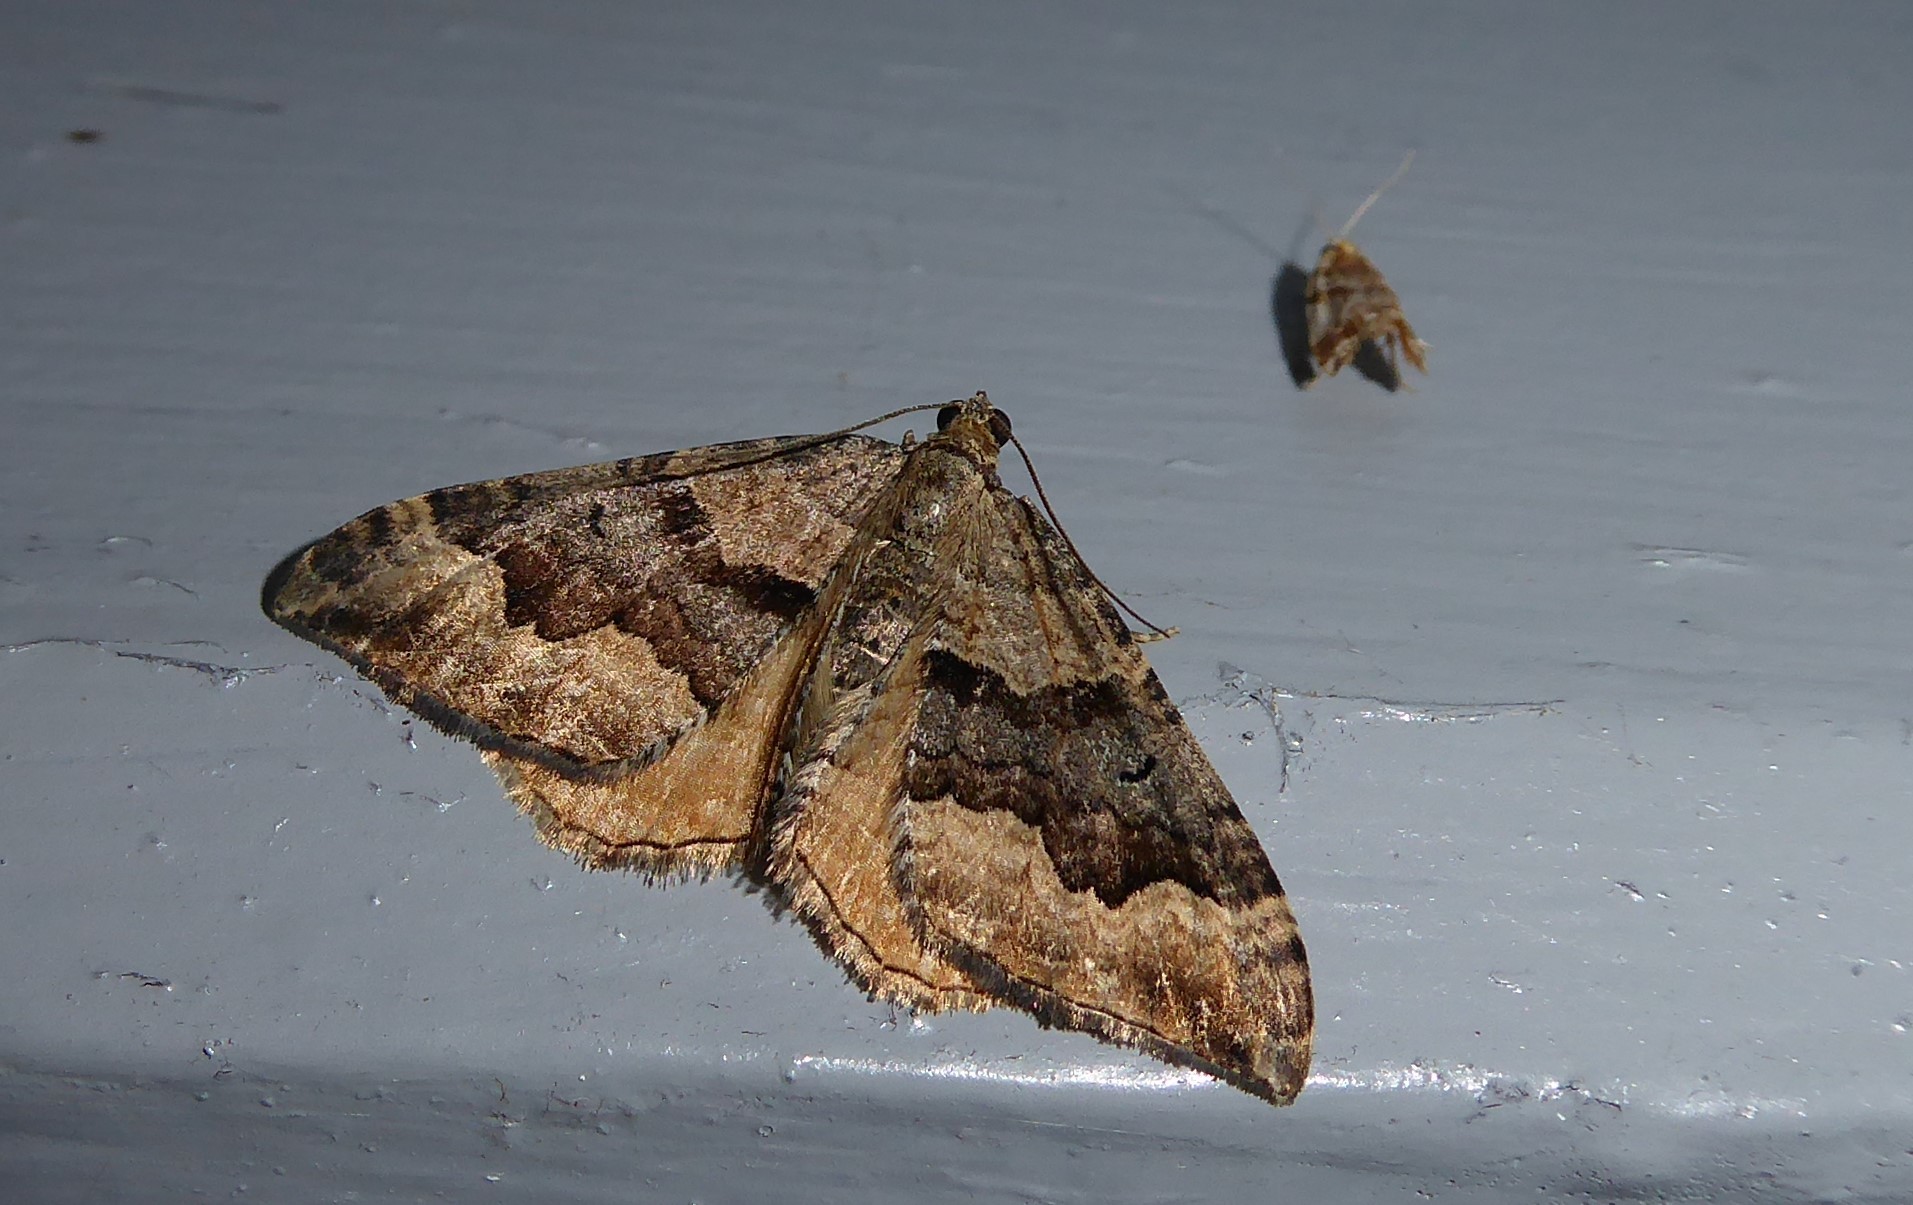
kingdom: Animalia
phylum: Arthropoda
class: Insecta
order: Lepidoptera
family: Geometridae
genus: Hydriomena
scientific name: Hydriomena deltoidata
